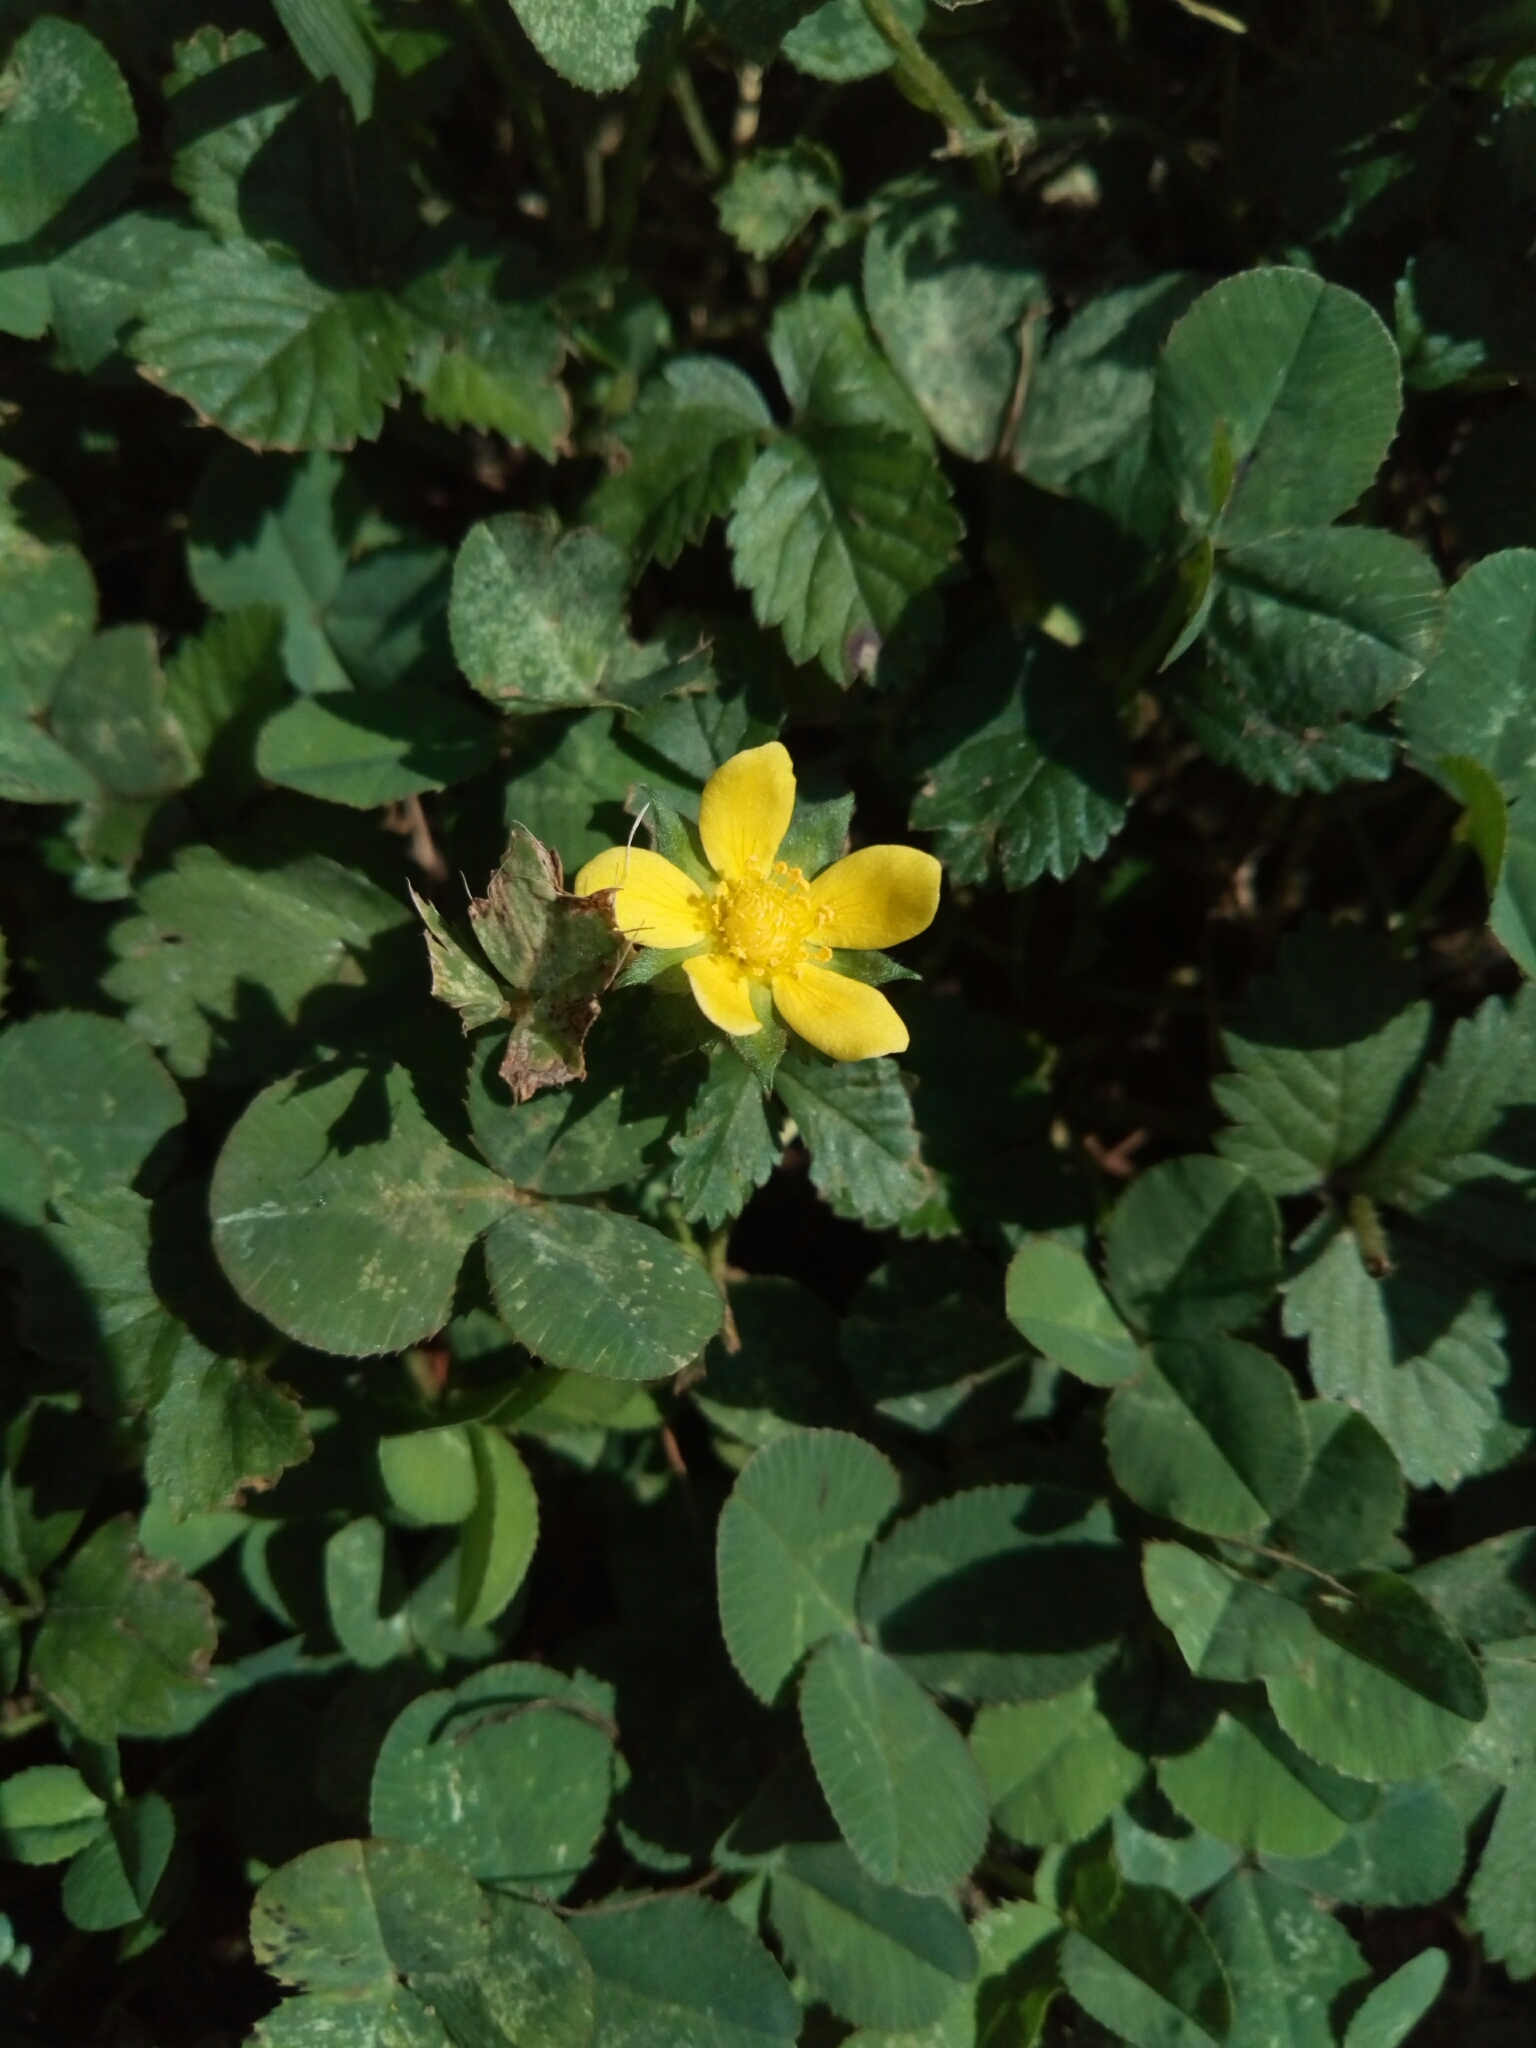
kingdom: Plantae
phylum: Tracheophyta
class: Magnoliopsida
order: Rosales
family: Rosaceae
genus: Potentilla
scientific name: Potentilla indica
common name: Yellow-flowered strawberry
